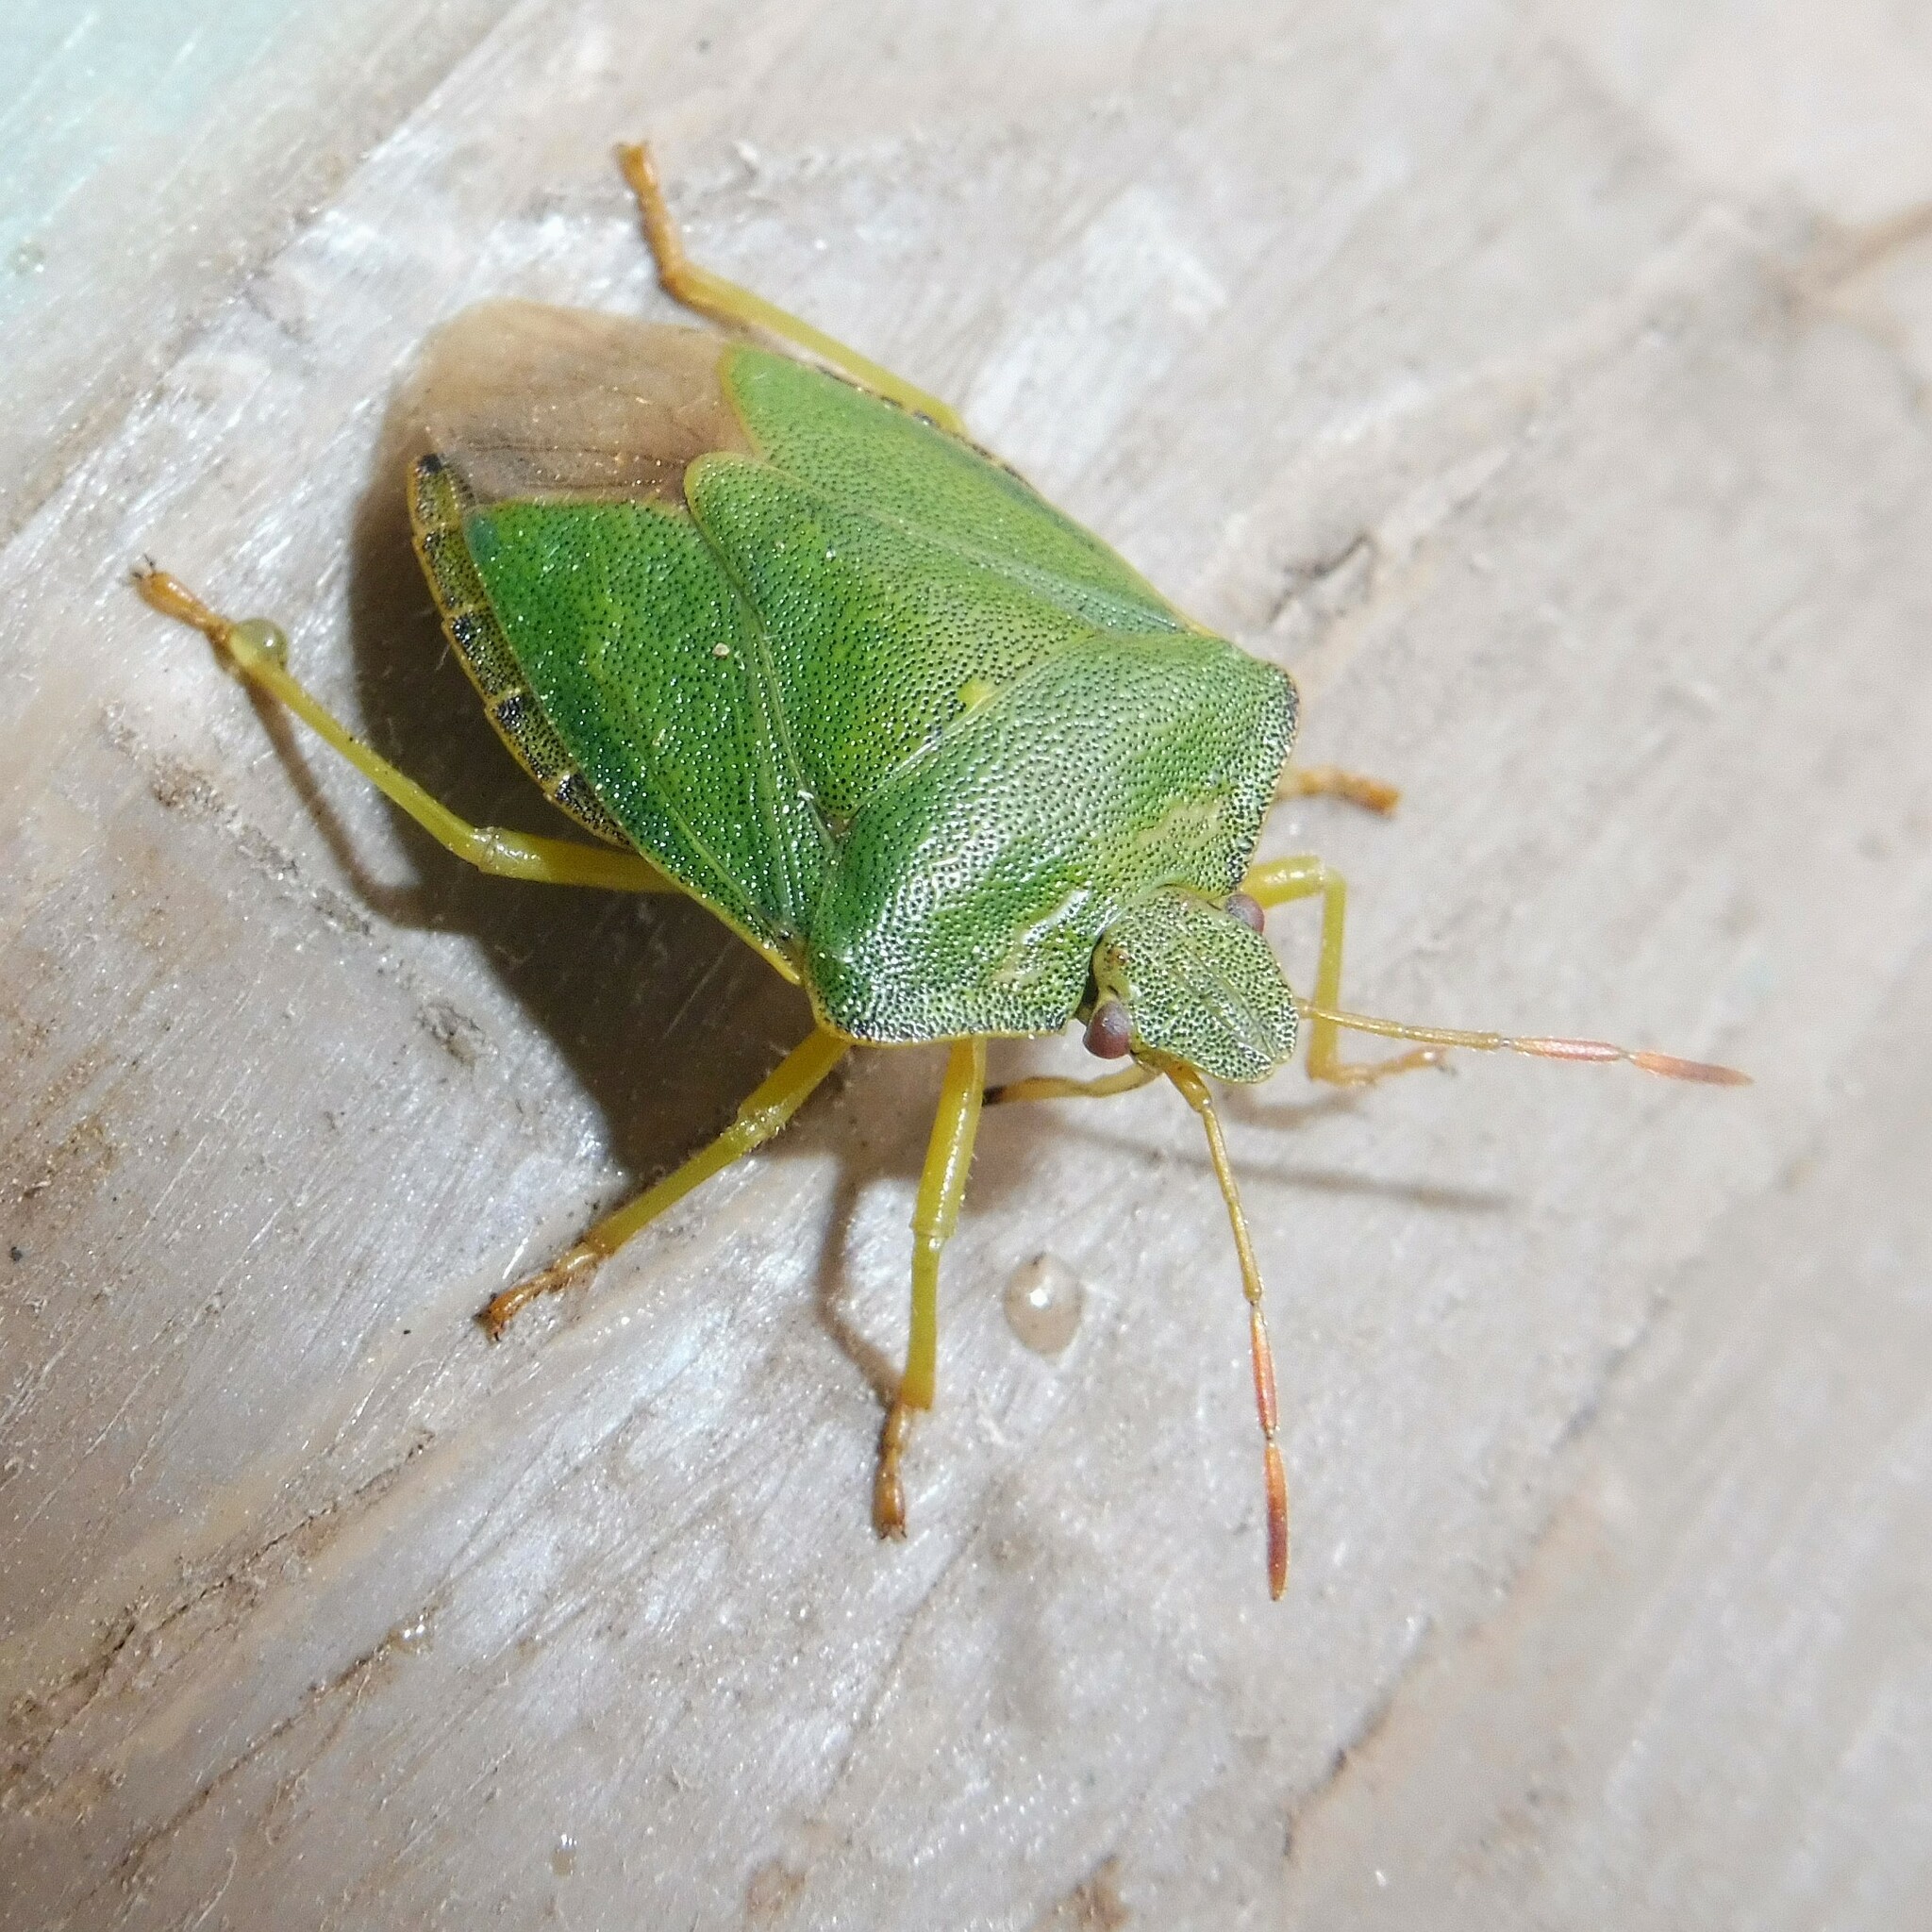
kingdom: Animalia
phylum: Arthropoda
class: Insecta
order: Hemiptera
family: Pentatomidae
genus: Palomena
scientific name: Palomena prasina
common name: Green shieldbug
